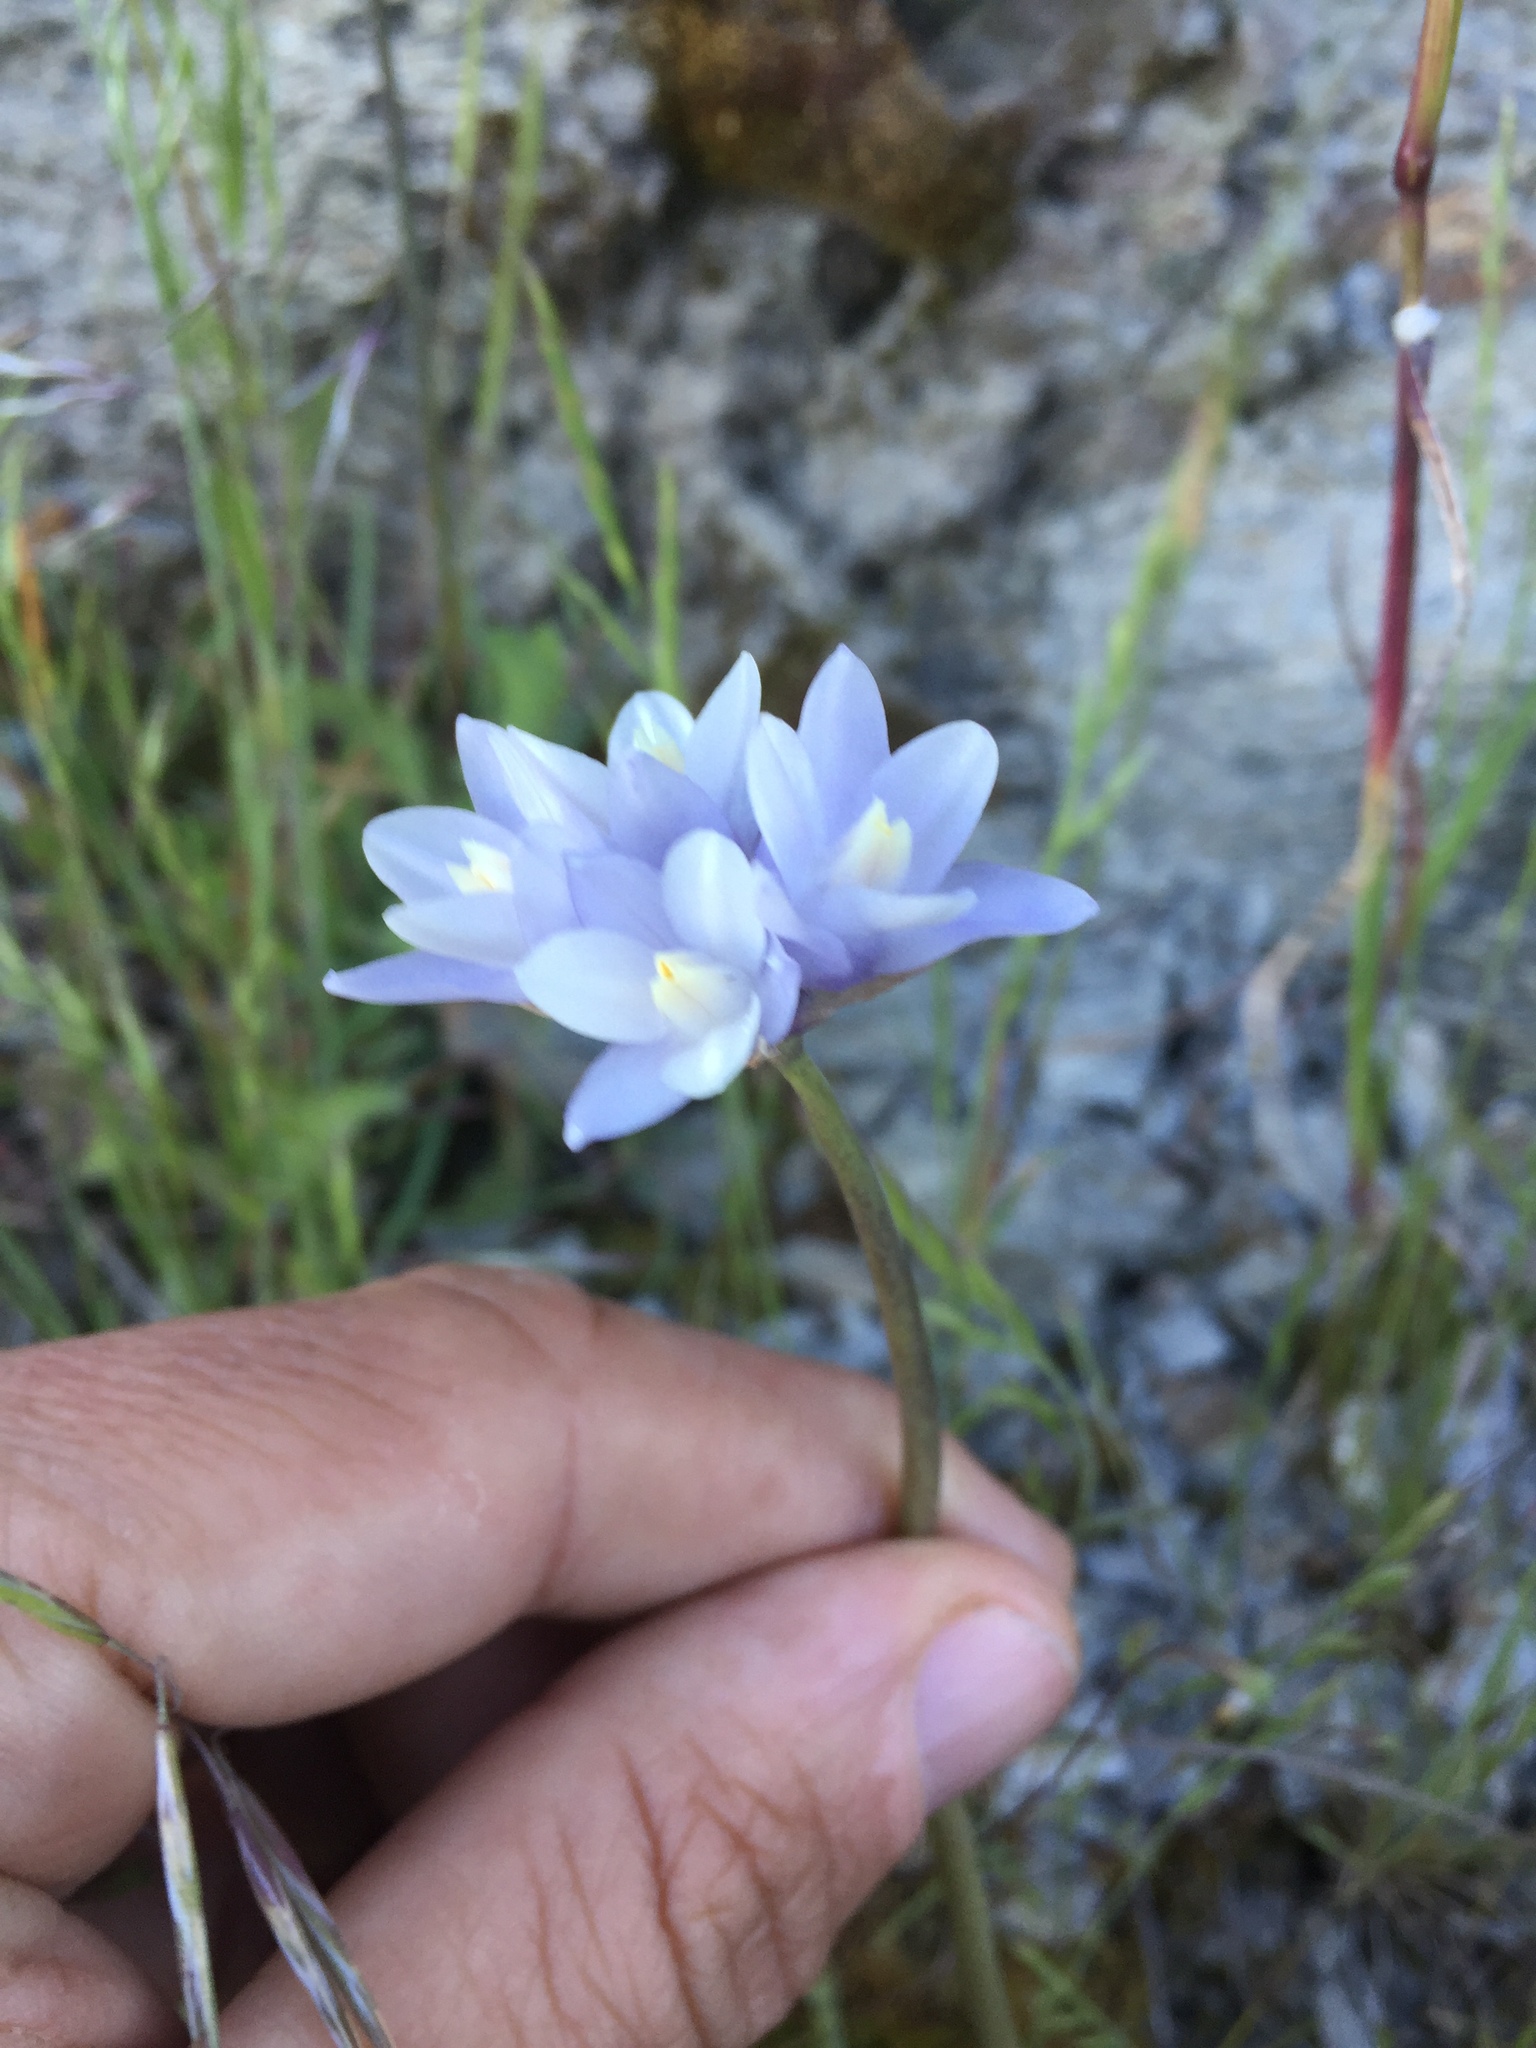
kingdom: Plantae
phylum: Tracheophyta
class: Liliopsida
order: Asparagales
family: Asparagaceae
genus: Dipterostemon
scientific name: Dipterostemon capitatus
